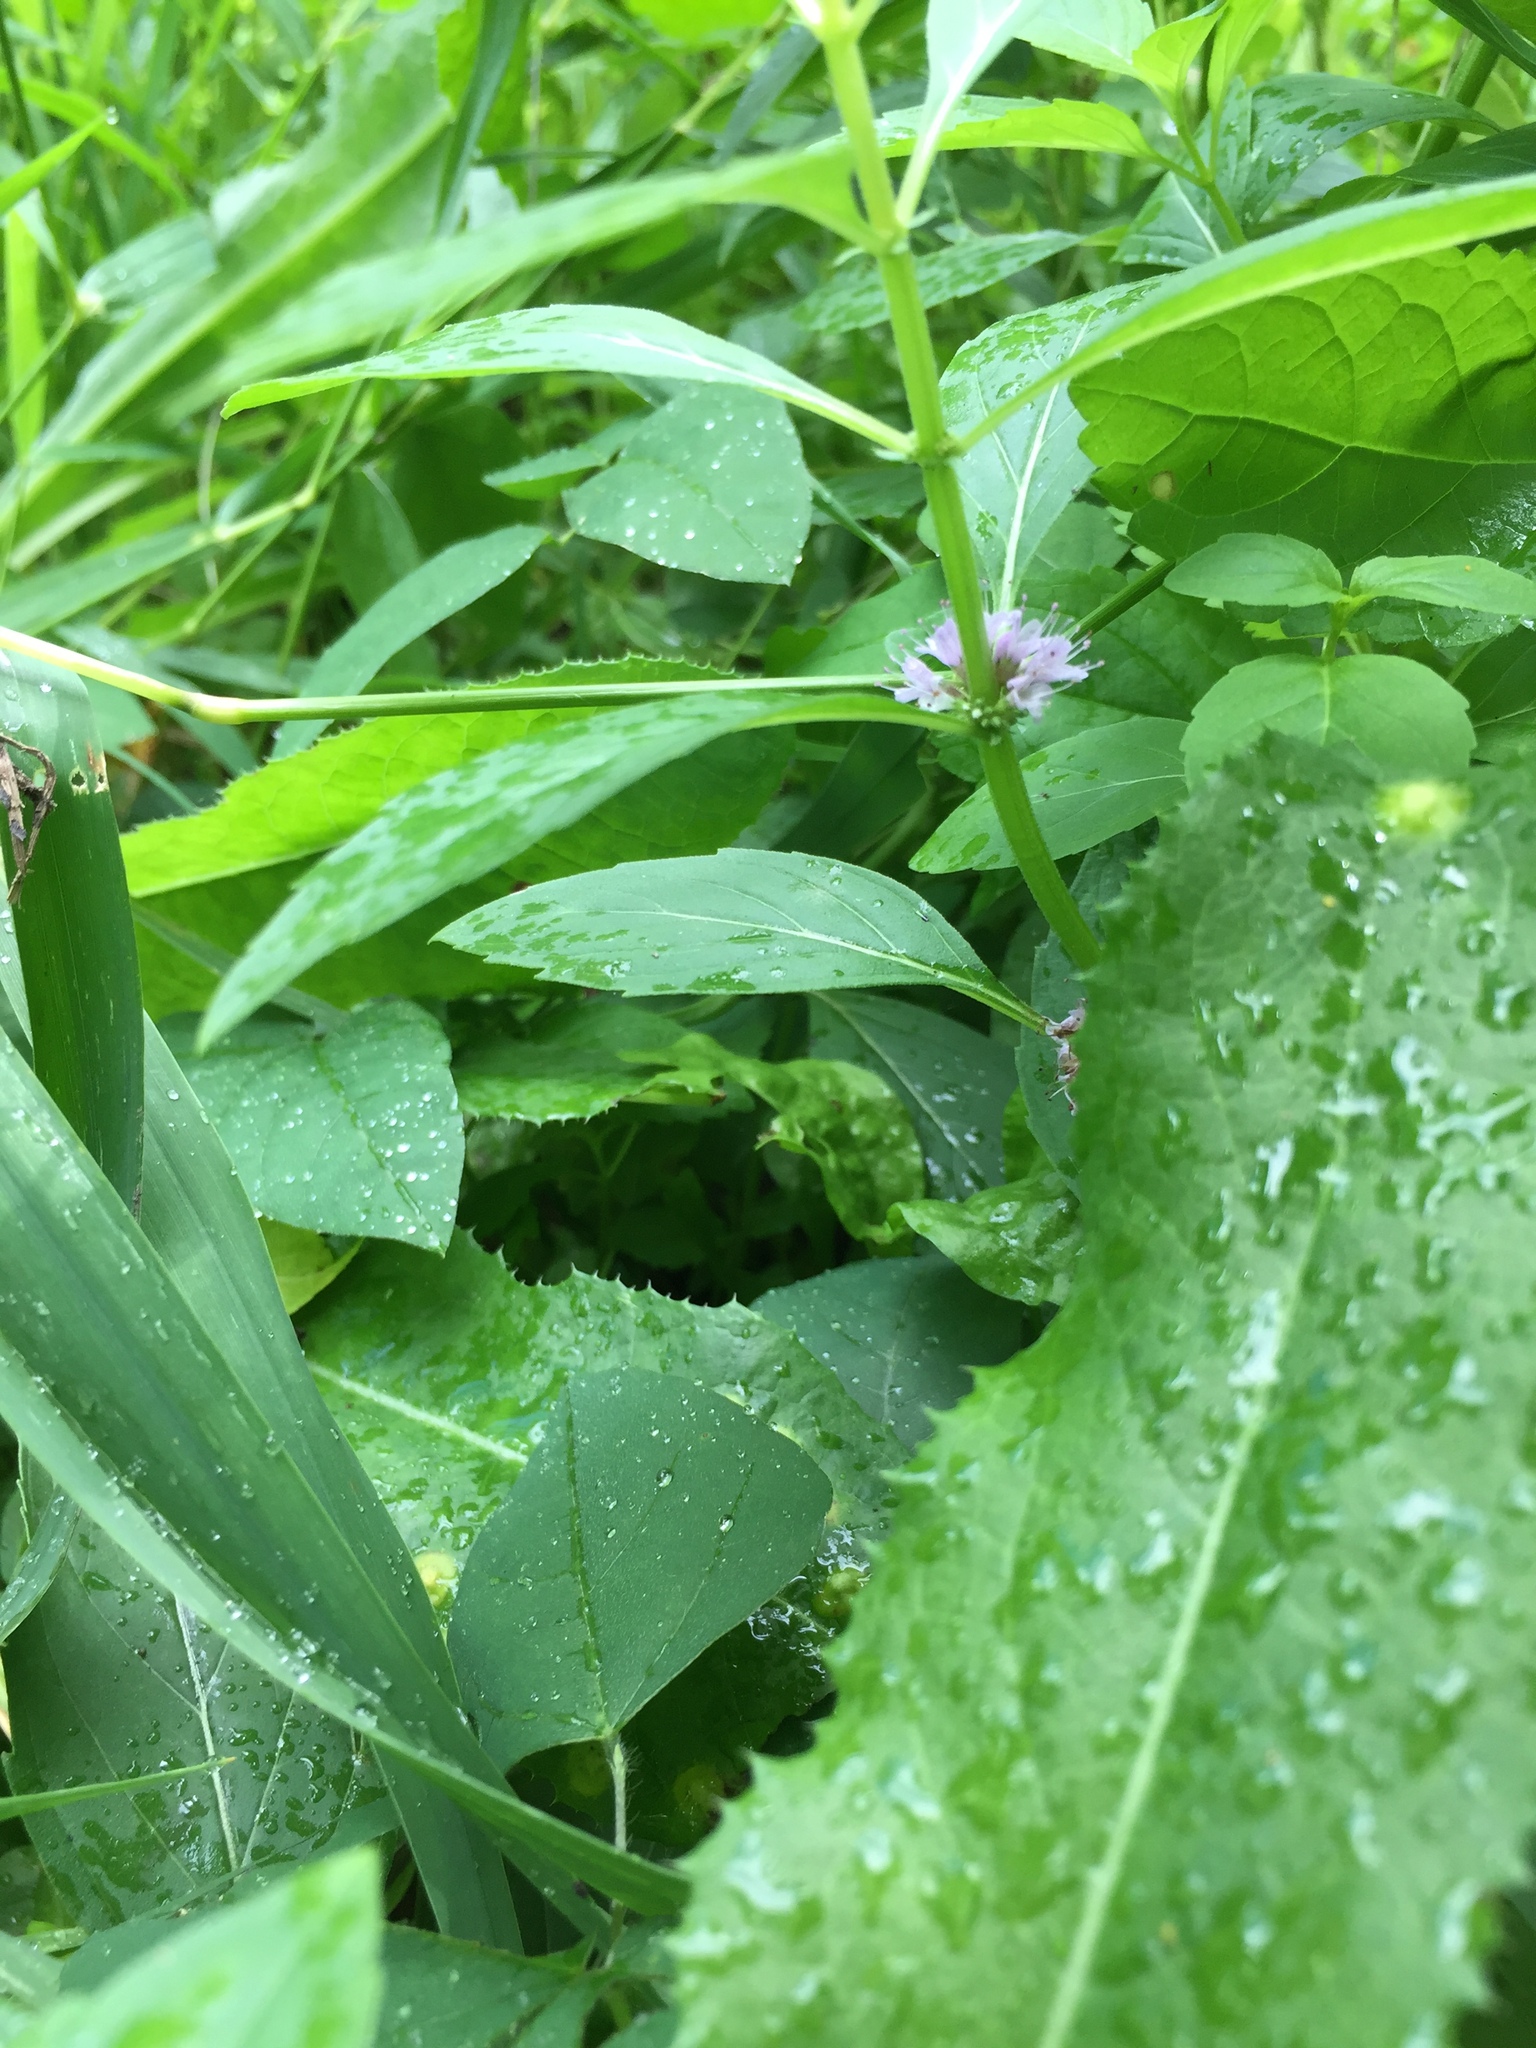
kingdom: Plantae
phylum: Tracheophyta
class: Magnoliopsida
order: Lamiales
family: Lamiaceae
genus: Mentha
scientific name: Mentha canadensis
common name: American corn mint
